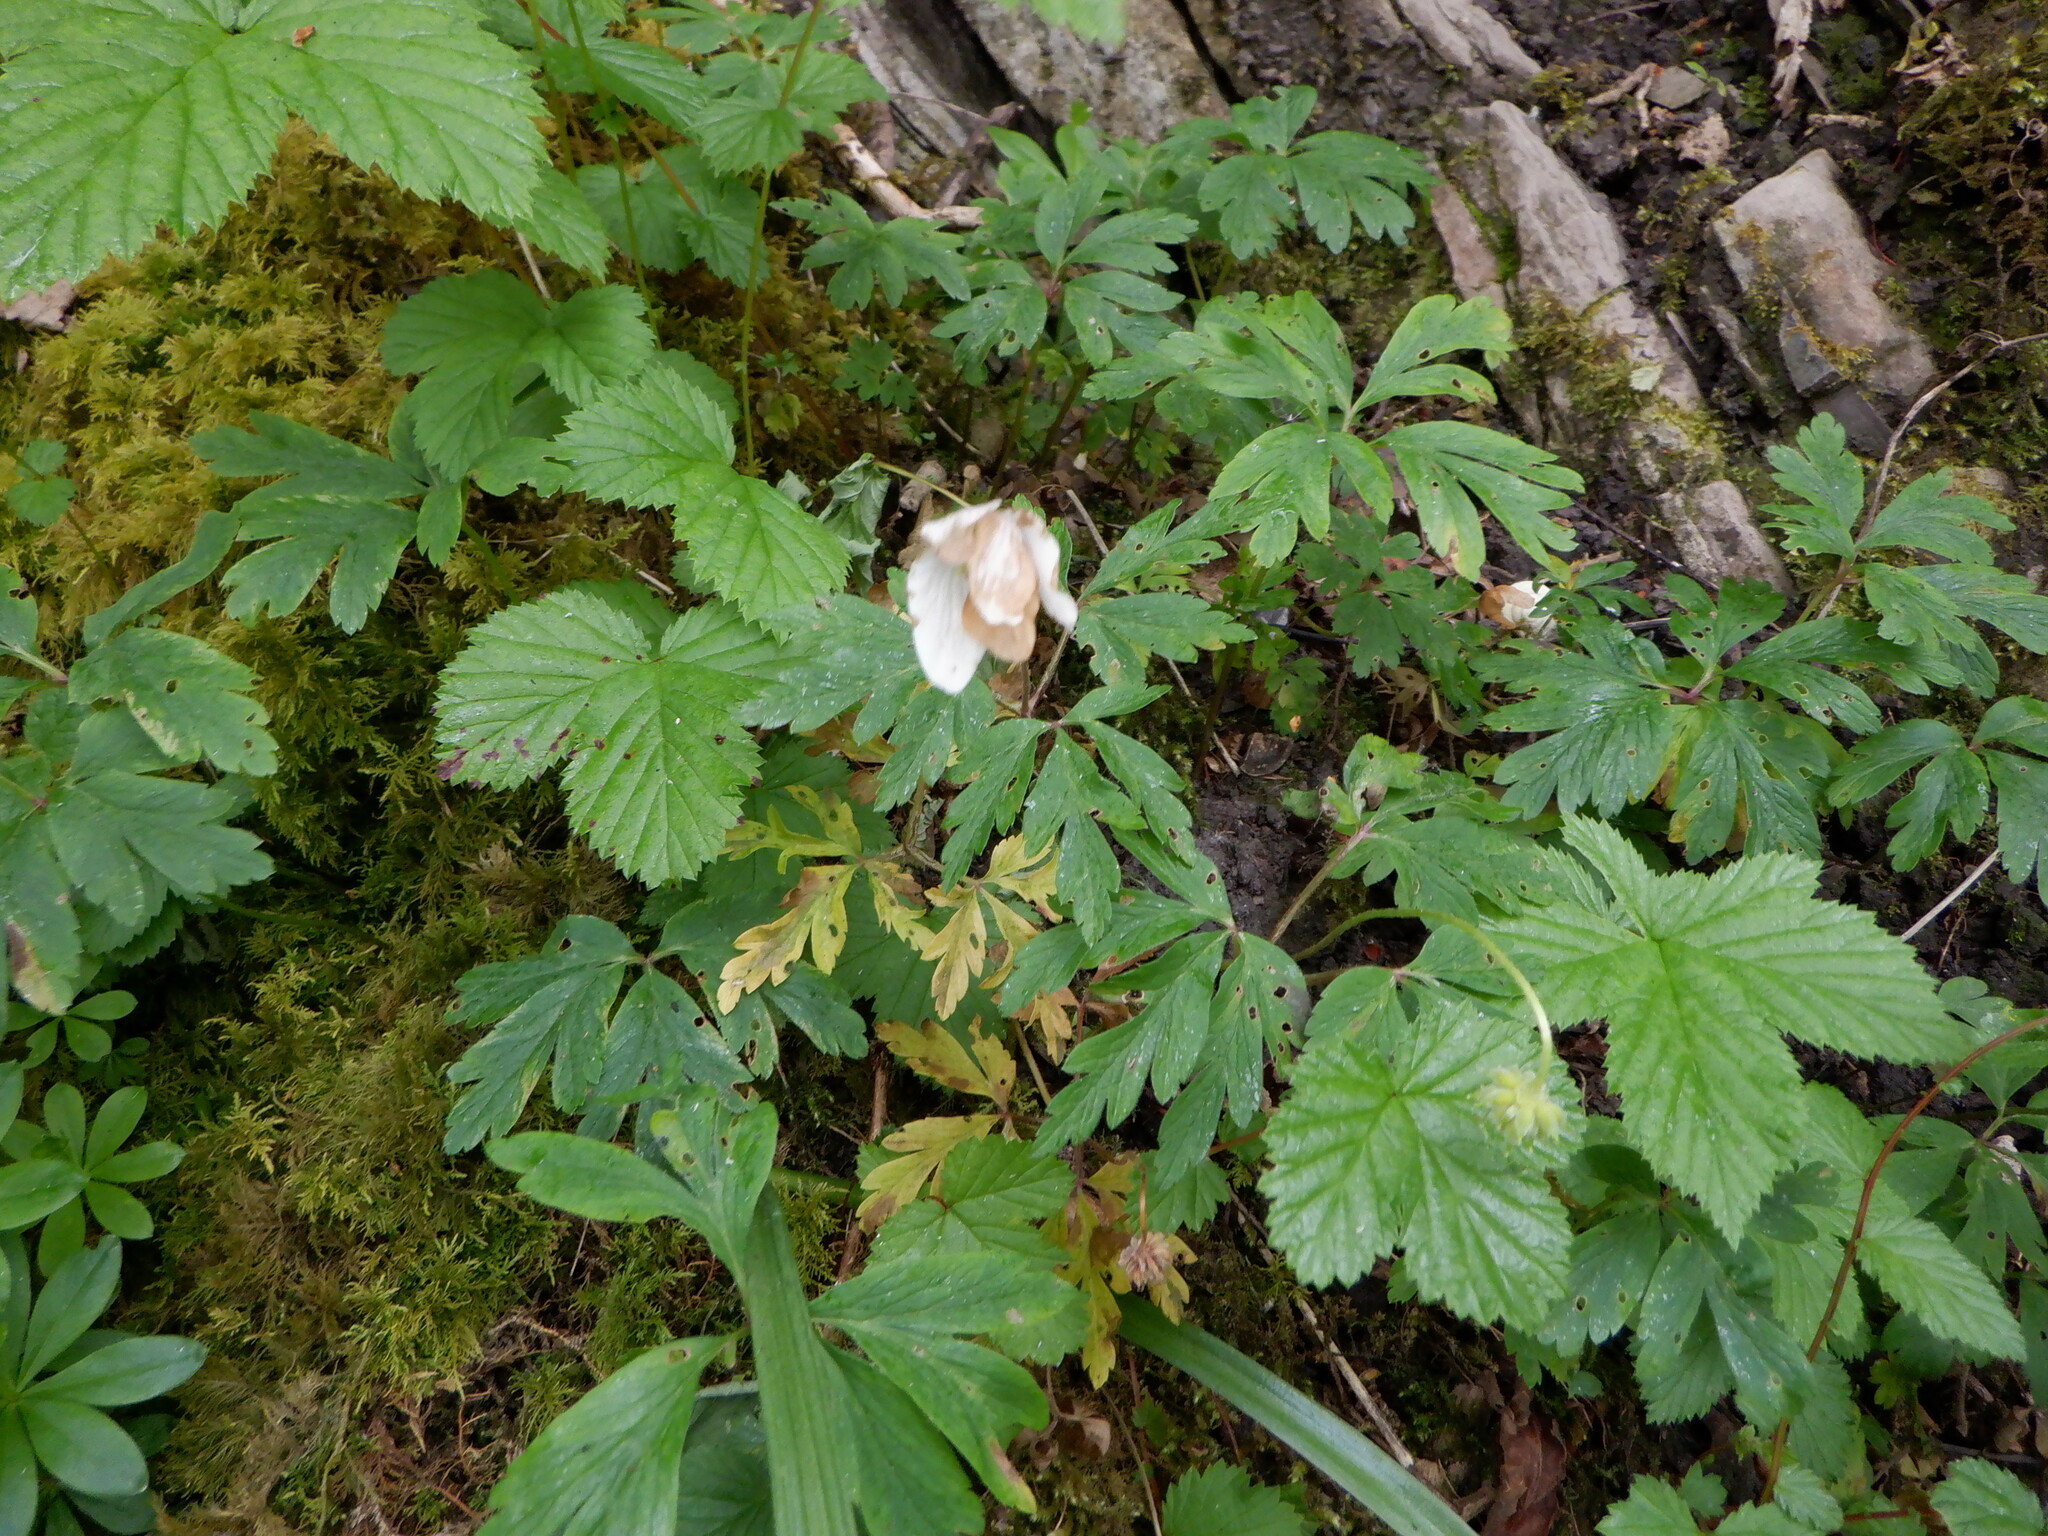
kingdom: Plantae
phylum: Tracheophyta
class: Magnoliopsida
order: Ranunculales
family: Ranunculaceae
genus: Anemone
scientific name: Anemone nemorosa
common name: Wood anemone
